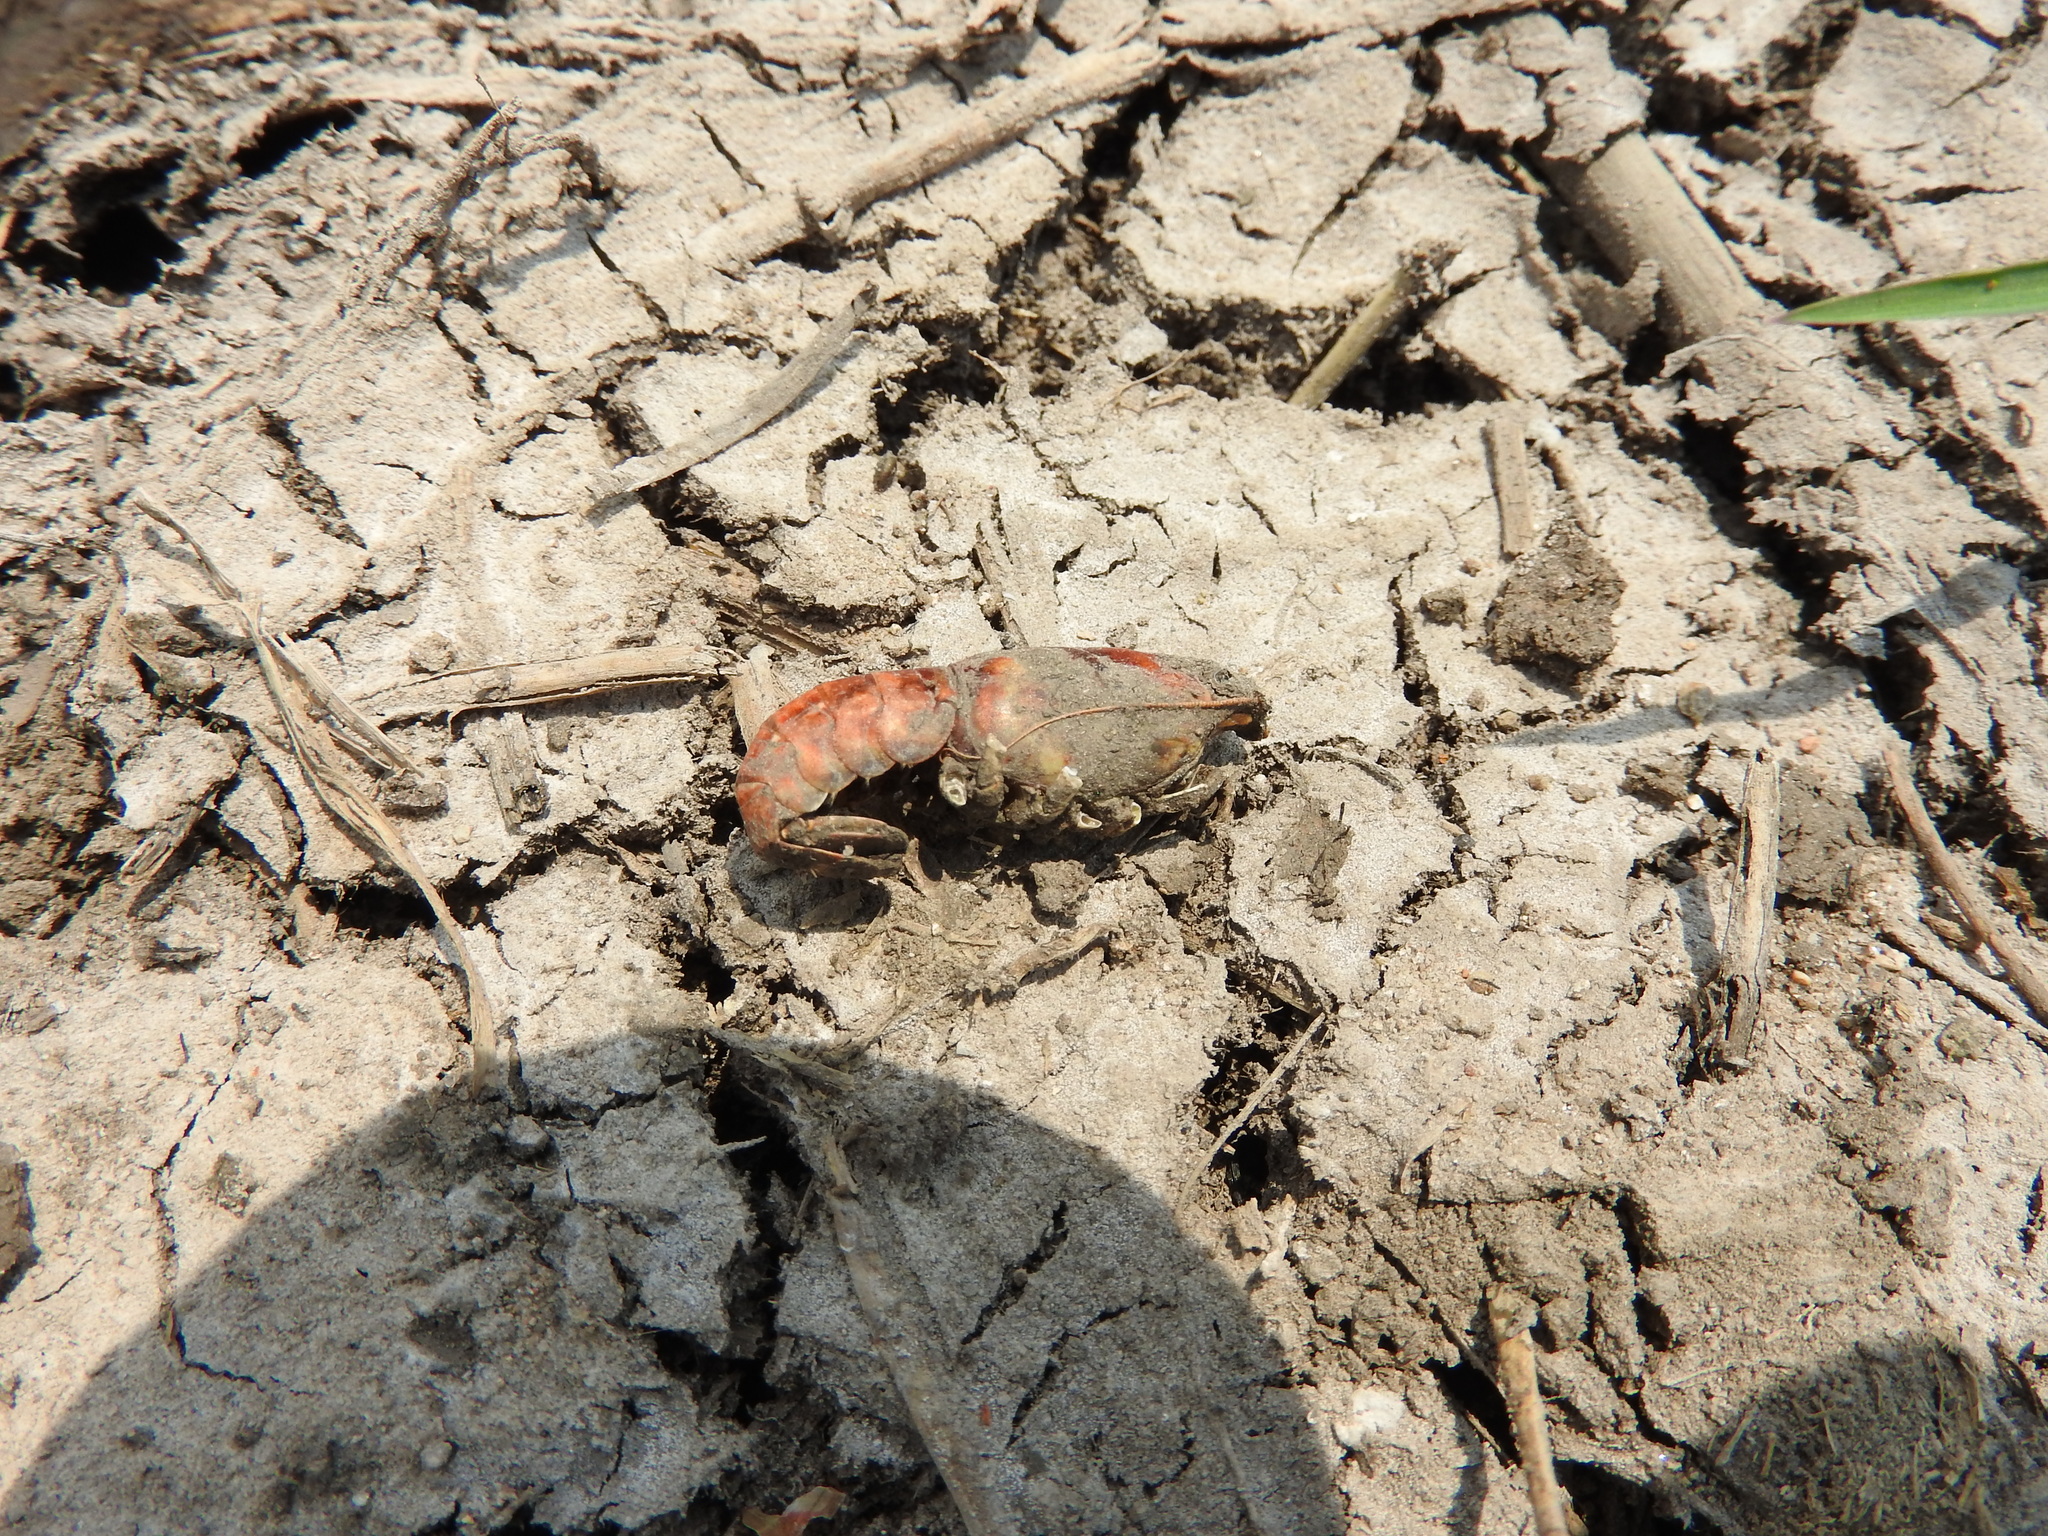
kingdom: Animalia
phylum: Arthropoda
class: Malacostraca
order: Decapoda
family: Cambaridae
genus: Procambarus
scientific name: Procambarus clarkii
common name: Red swamp crayfish
